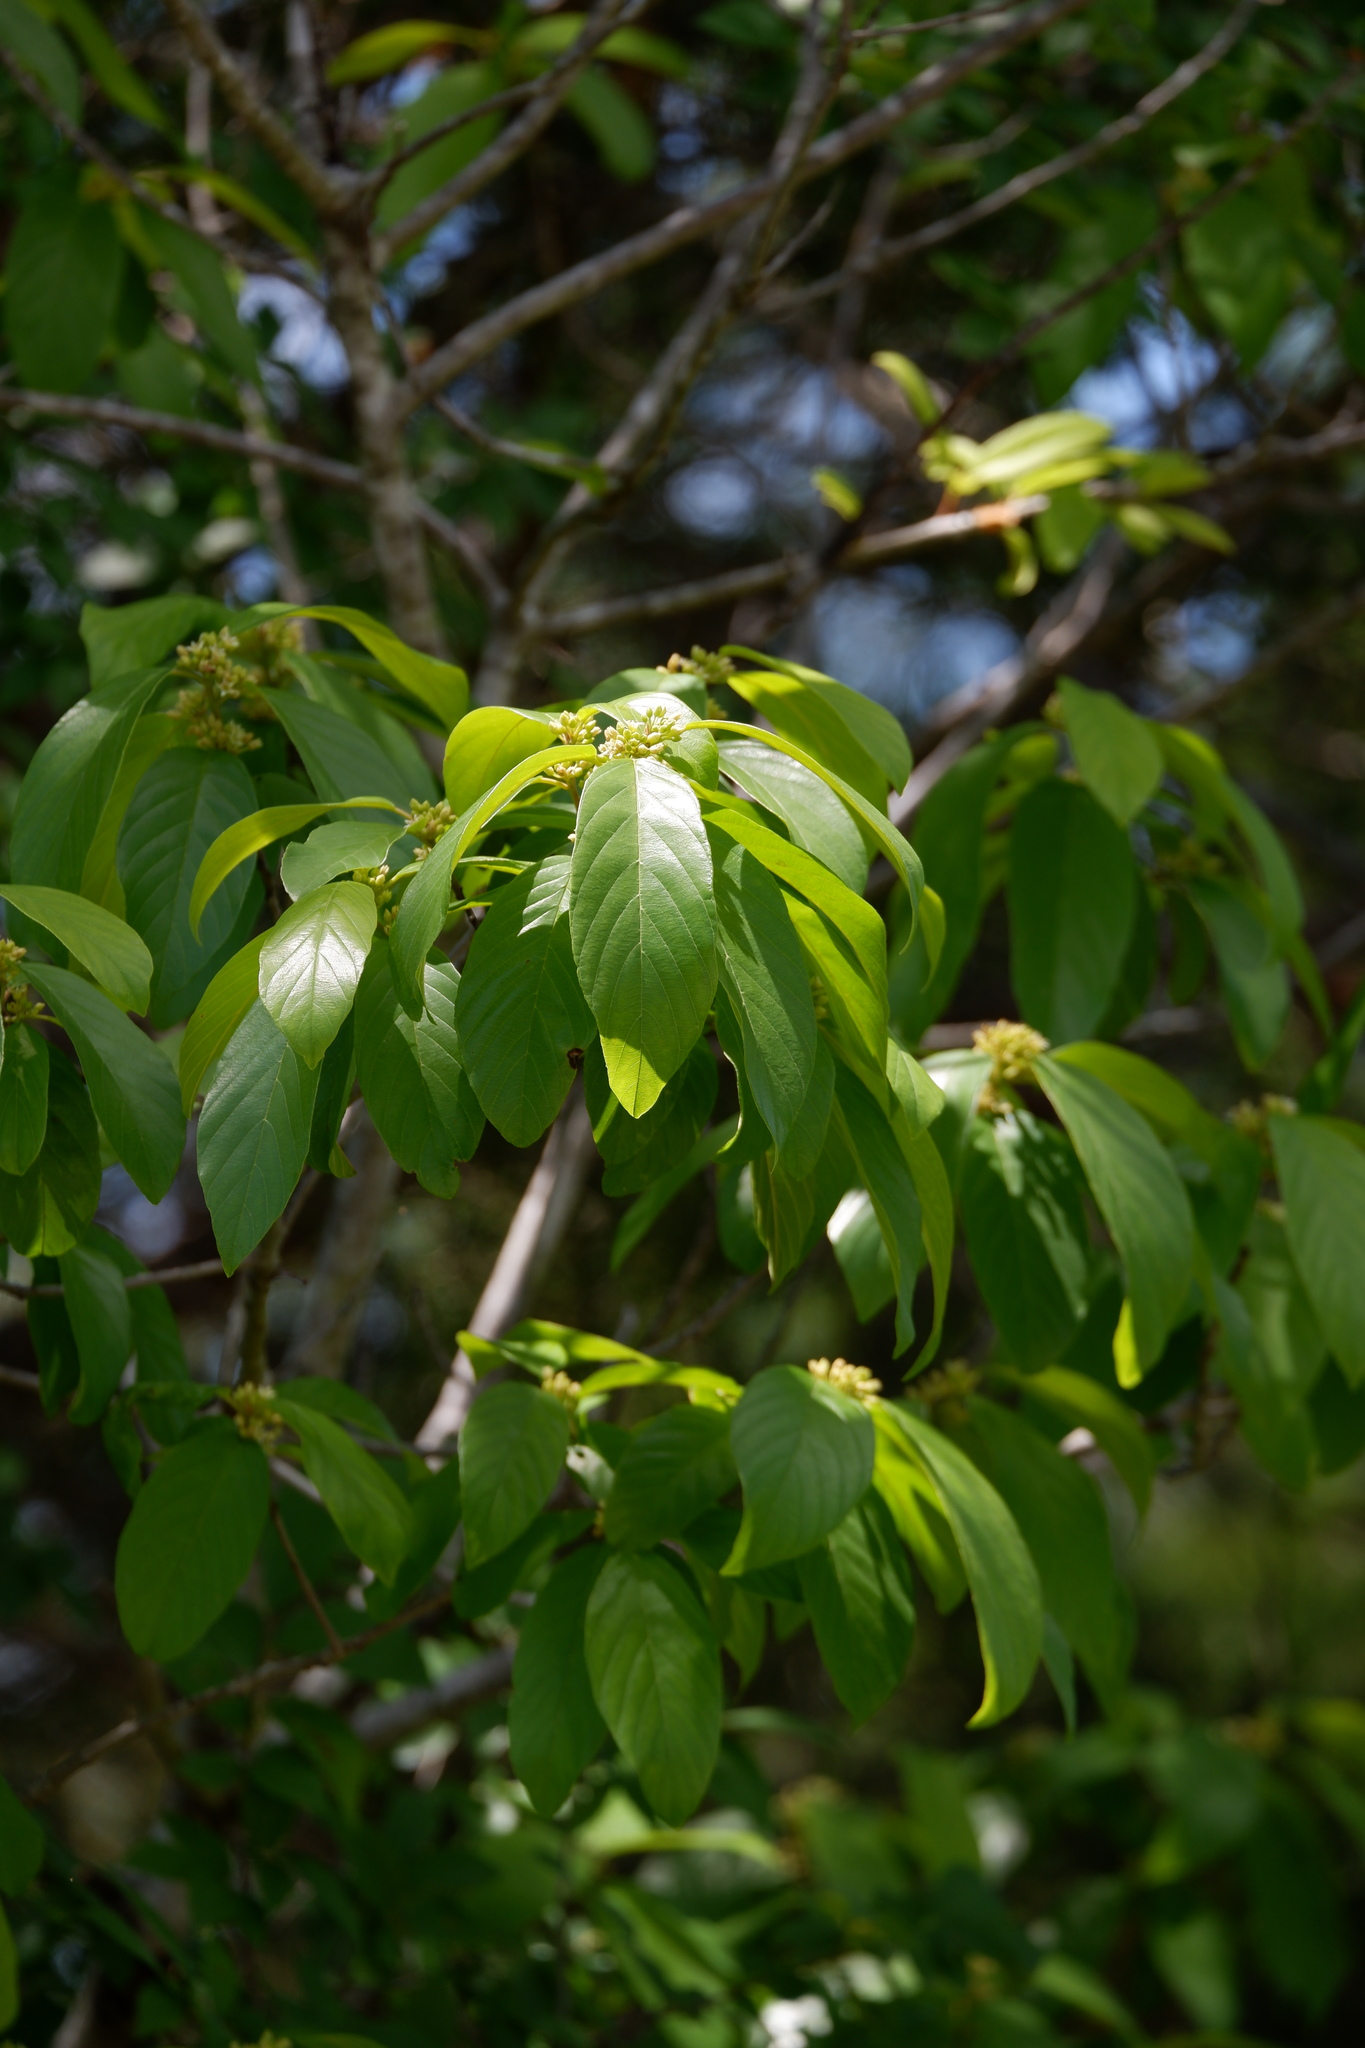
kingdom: Plantae
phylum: Tracheophyta
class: Magnoliopsida
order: Rosales
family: Rhamnaceae
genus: Frangula
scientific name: Frangula caroliniana
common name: Carolina buckthorn
